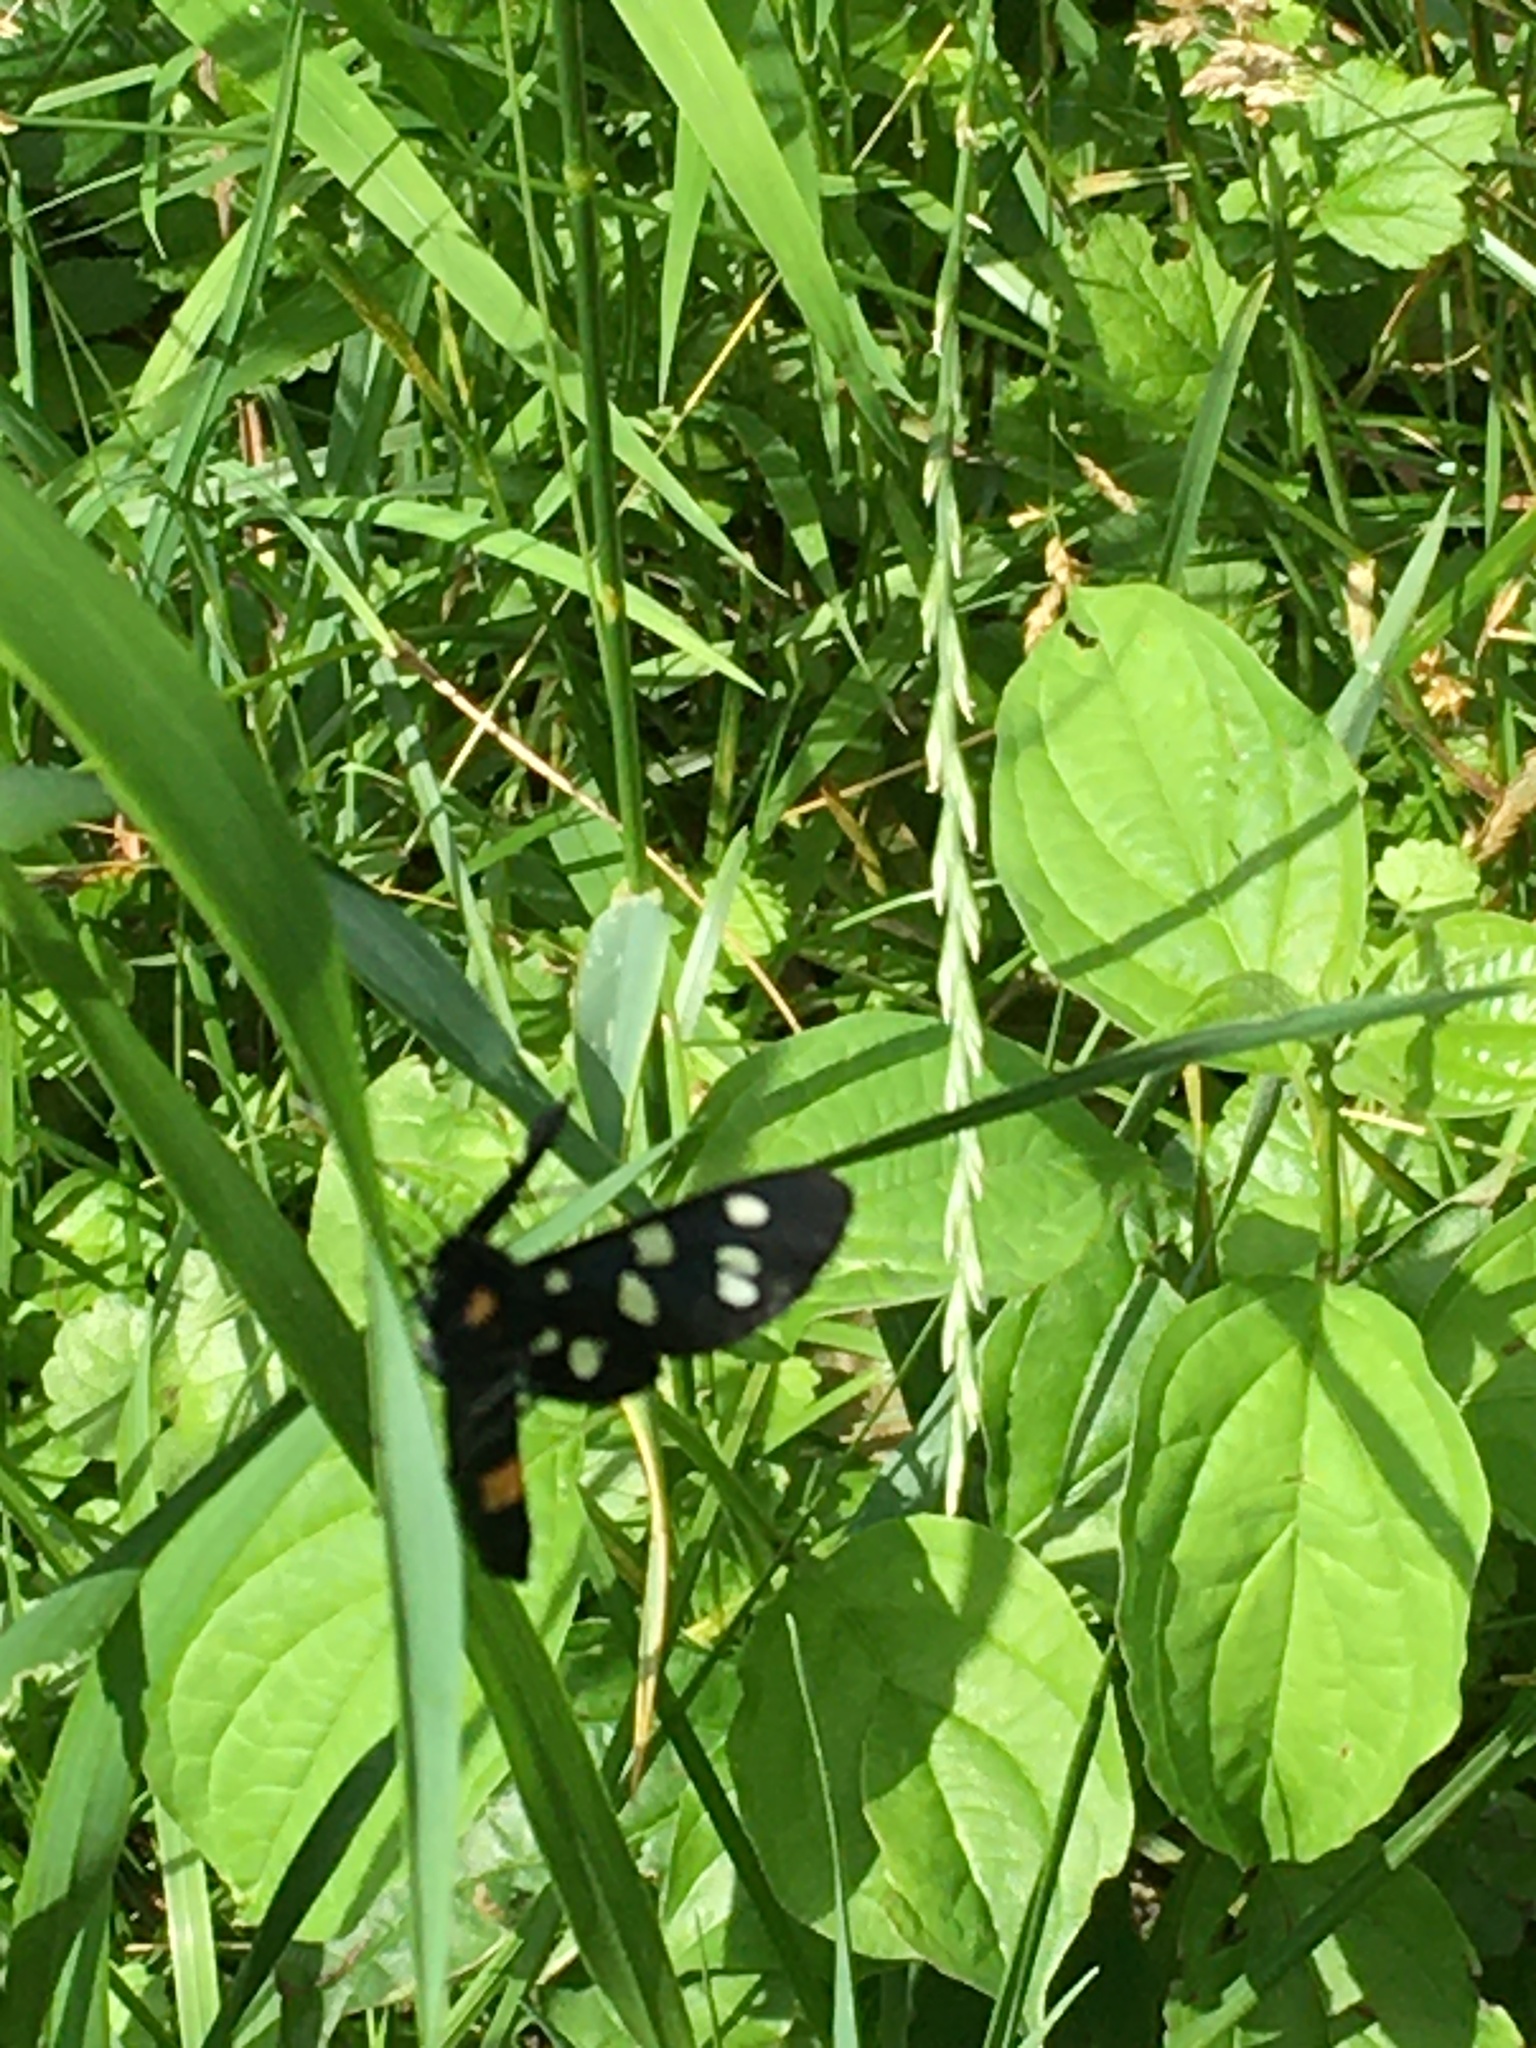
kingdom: Animalia
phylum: Arthropoda
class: Insecta
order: Lepidoptera
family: Erebidae
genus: Amata
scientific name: Amata phegea
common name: Nine-spotted
